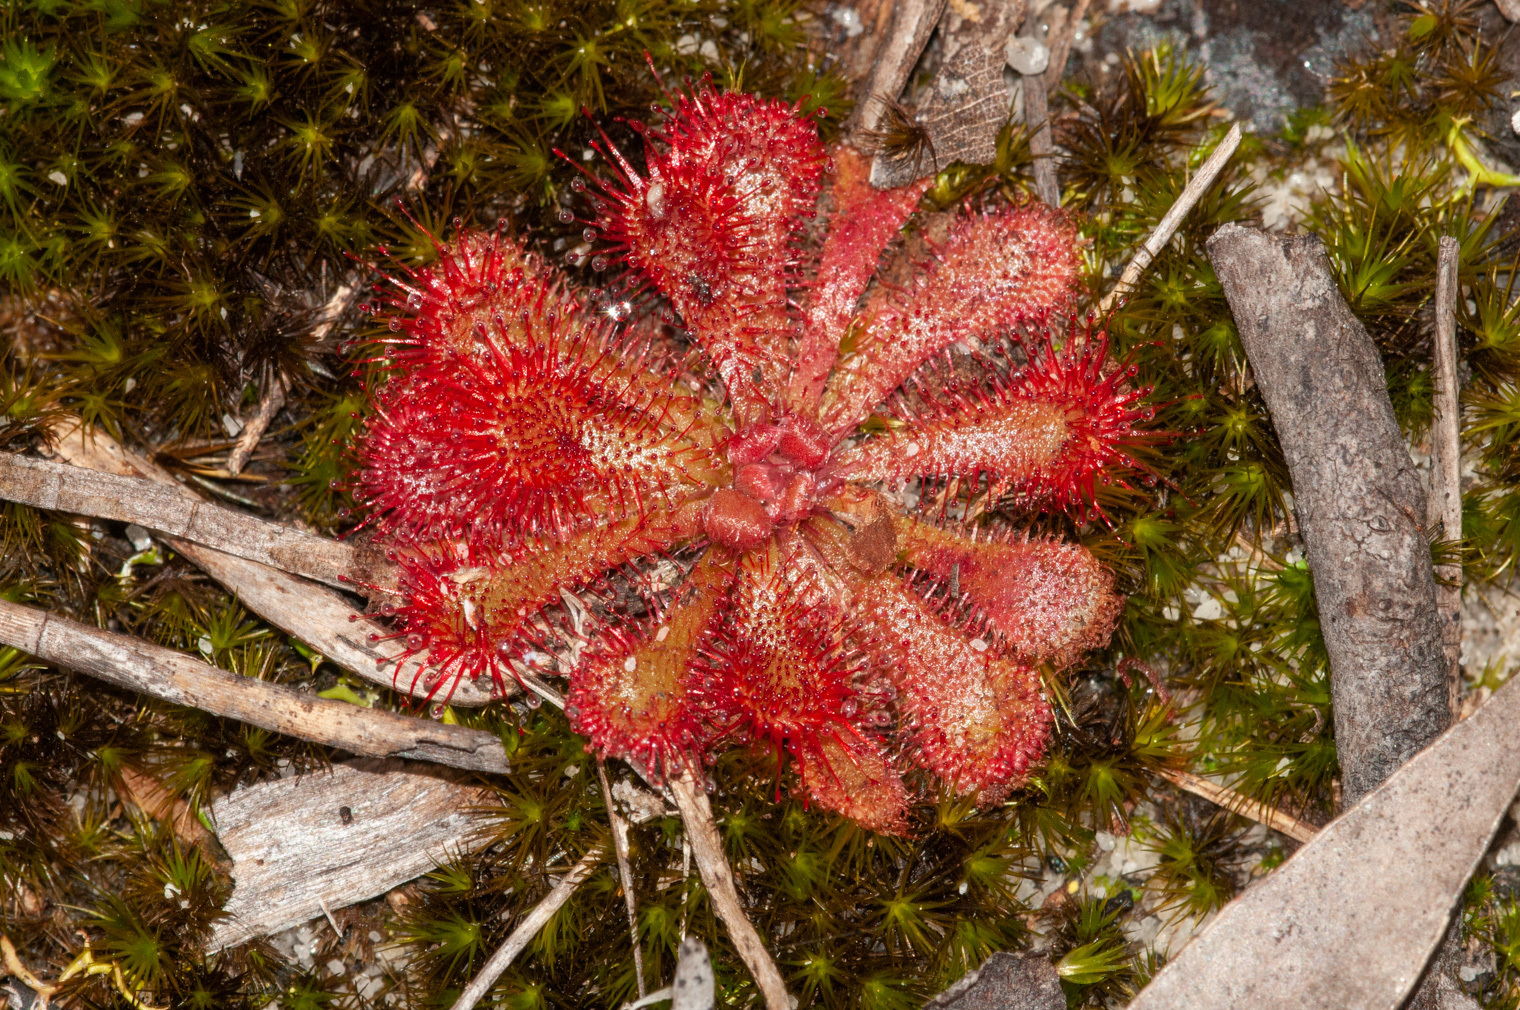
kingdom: Plantae
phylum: Tracheophyta
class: Magnoliopsida
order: Caryophyllales
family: Droseraceae
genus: Drosera
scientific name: Drosera spatulata
